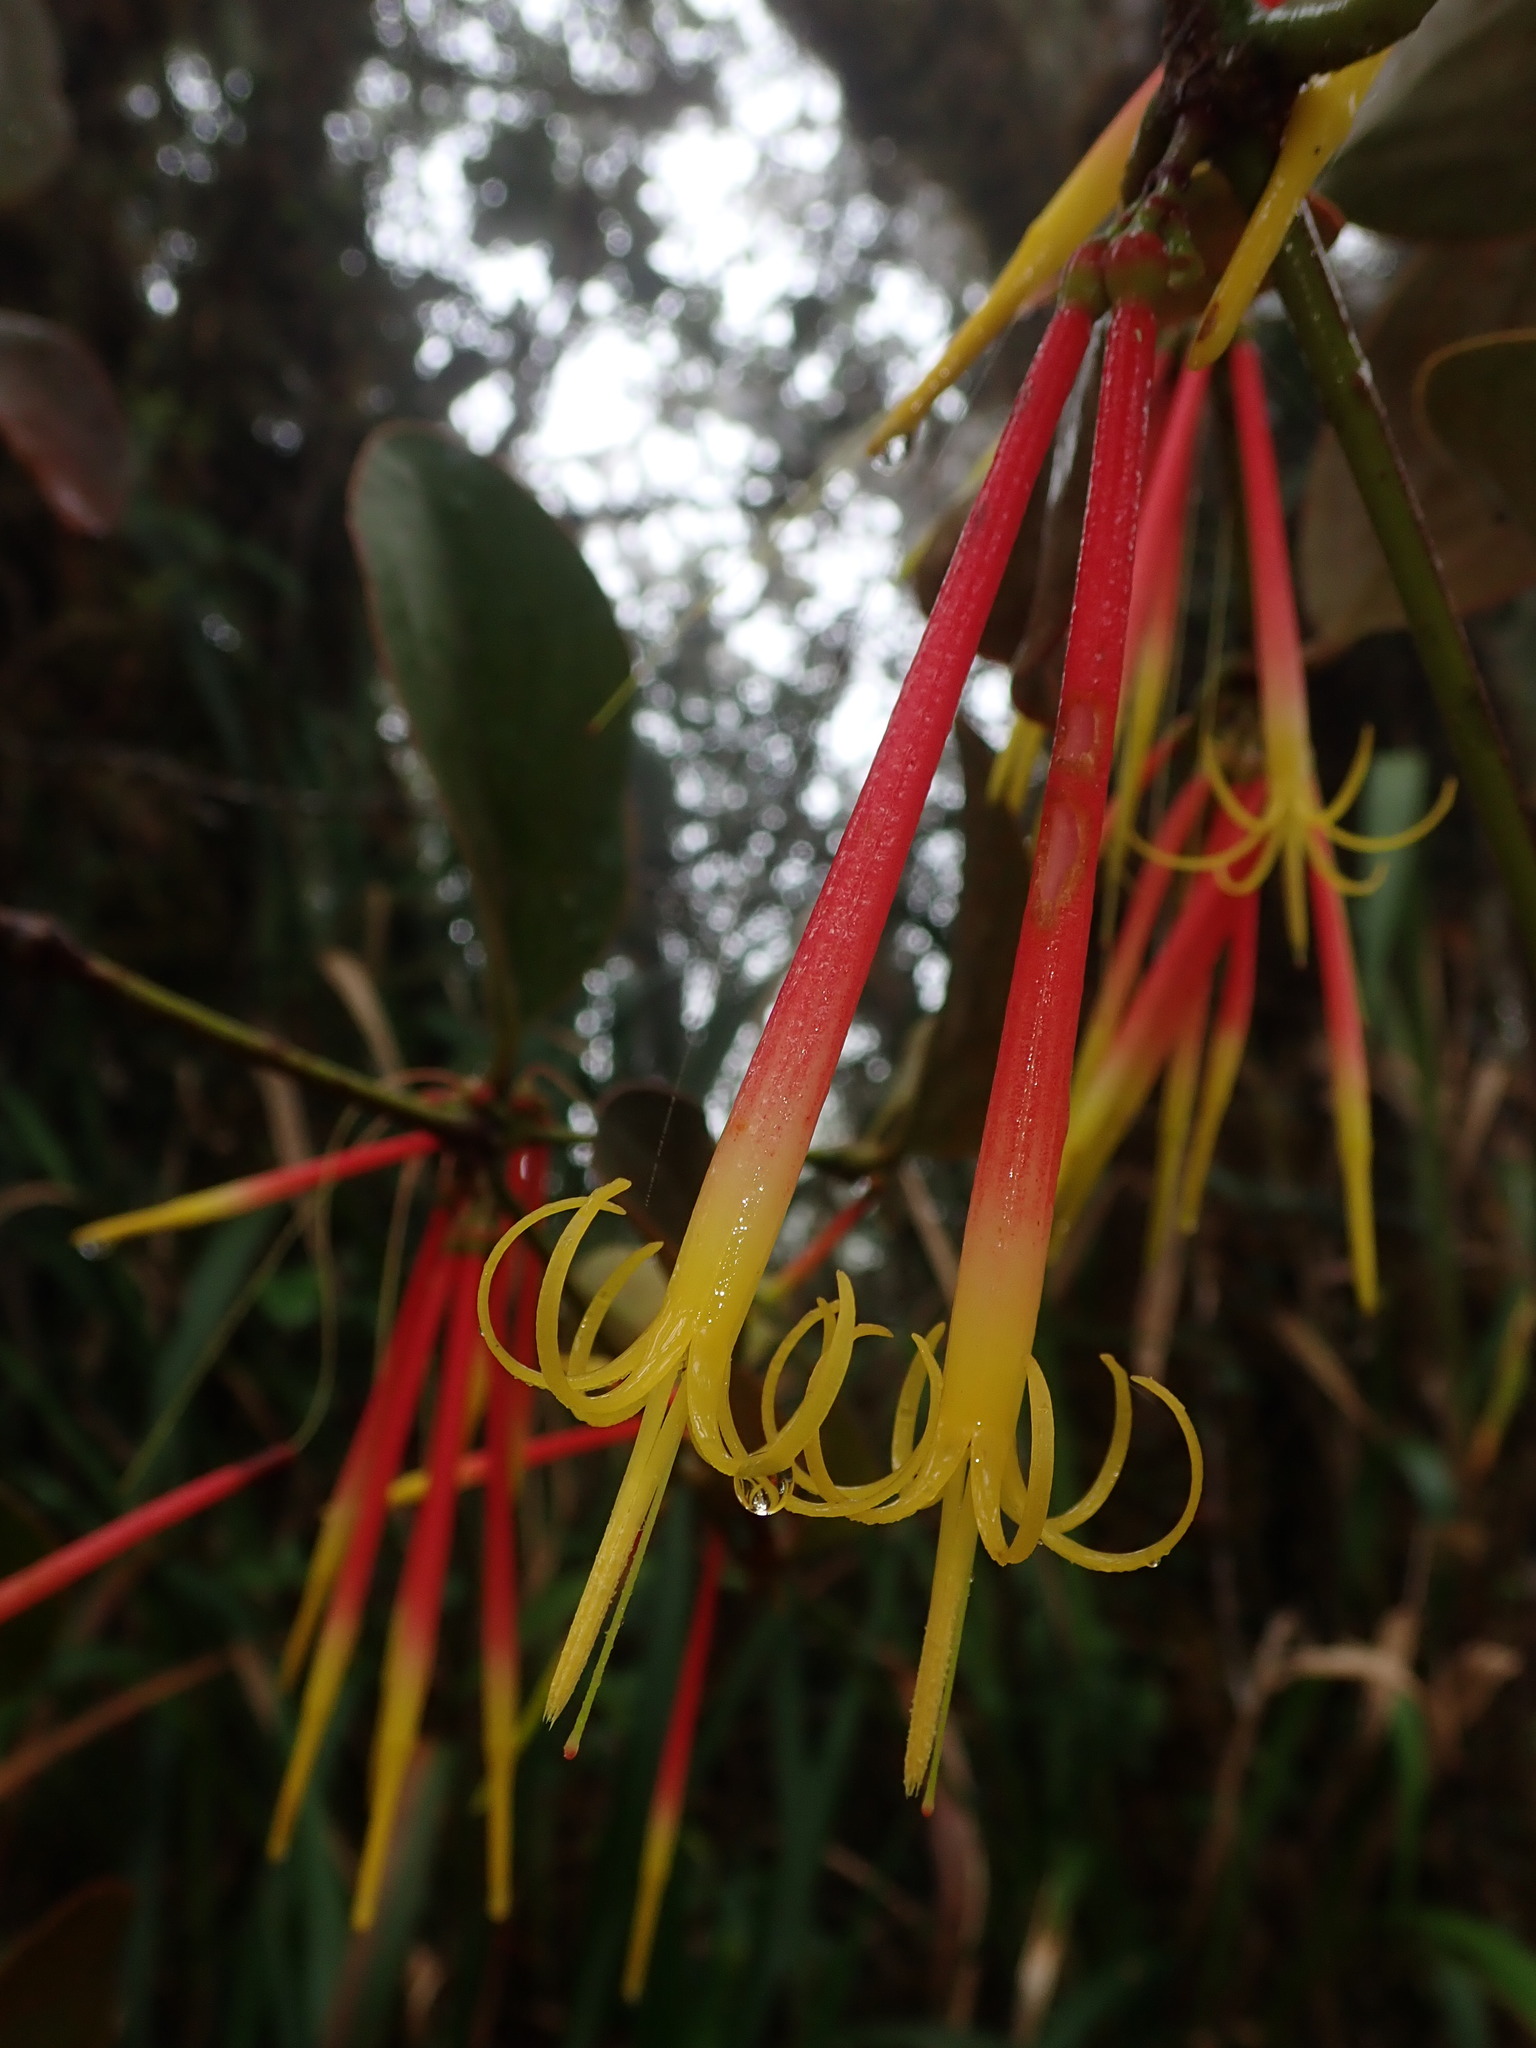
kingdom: Plantae
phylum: Tracheophyta
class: Magnoliopsida
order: Santalales
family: Loranthaceae
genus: Aetanthus
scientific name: Aetanthus nodosus
